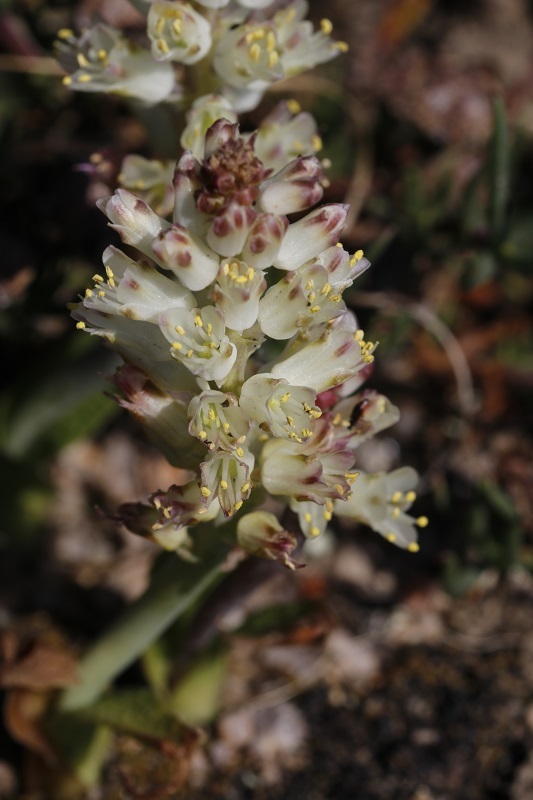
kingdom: Plantae
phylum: Tracheophyta
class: Liliopsida
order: Asparagales
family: Asparagaceae
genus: Lachenalia
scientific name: Lachenalia pallida
